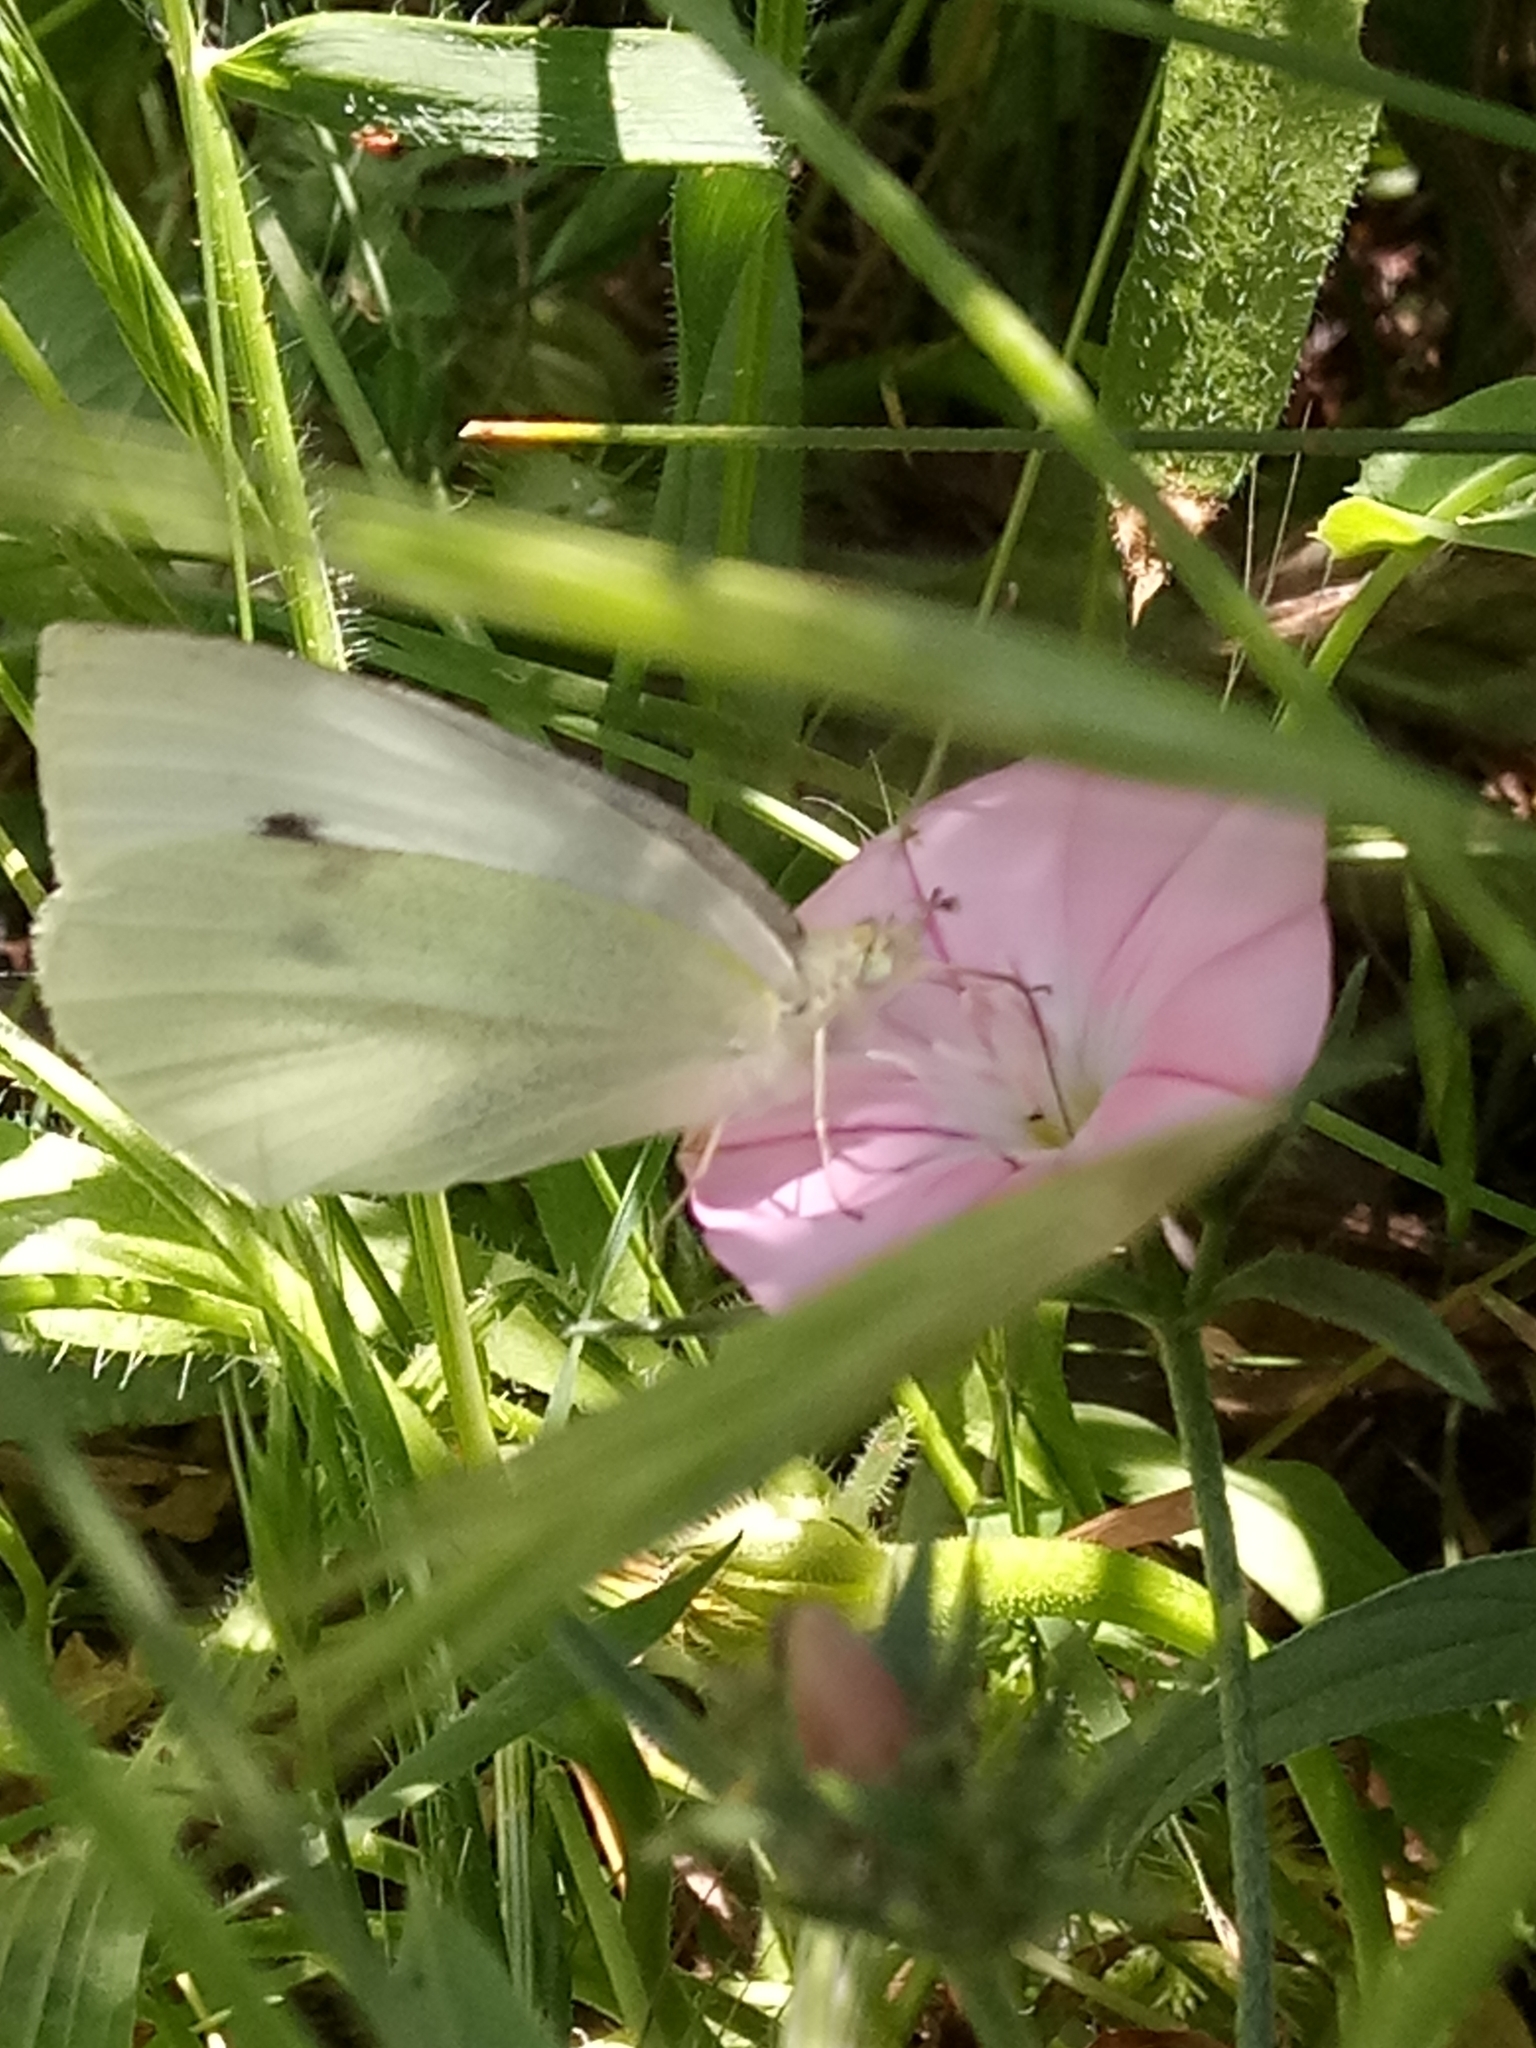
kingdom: Animalia
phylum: Arthropoda
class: Insecta
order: Lepidoptera
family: Pieridae
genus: Pieris
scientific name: Pieris rapae
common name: Small white
